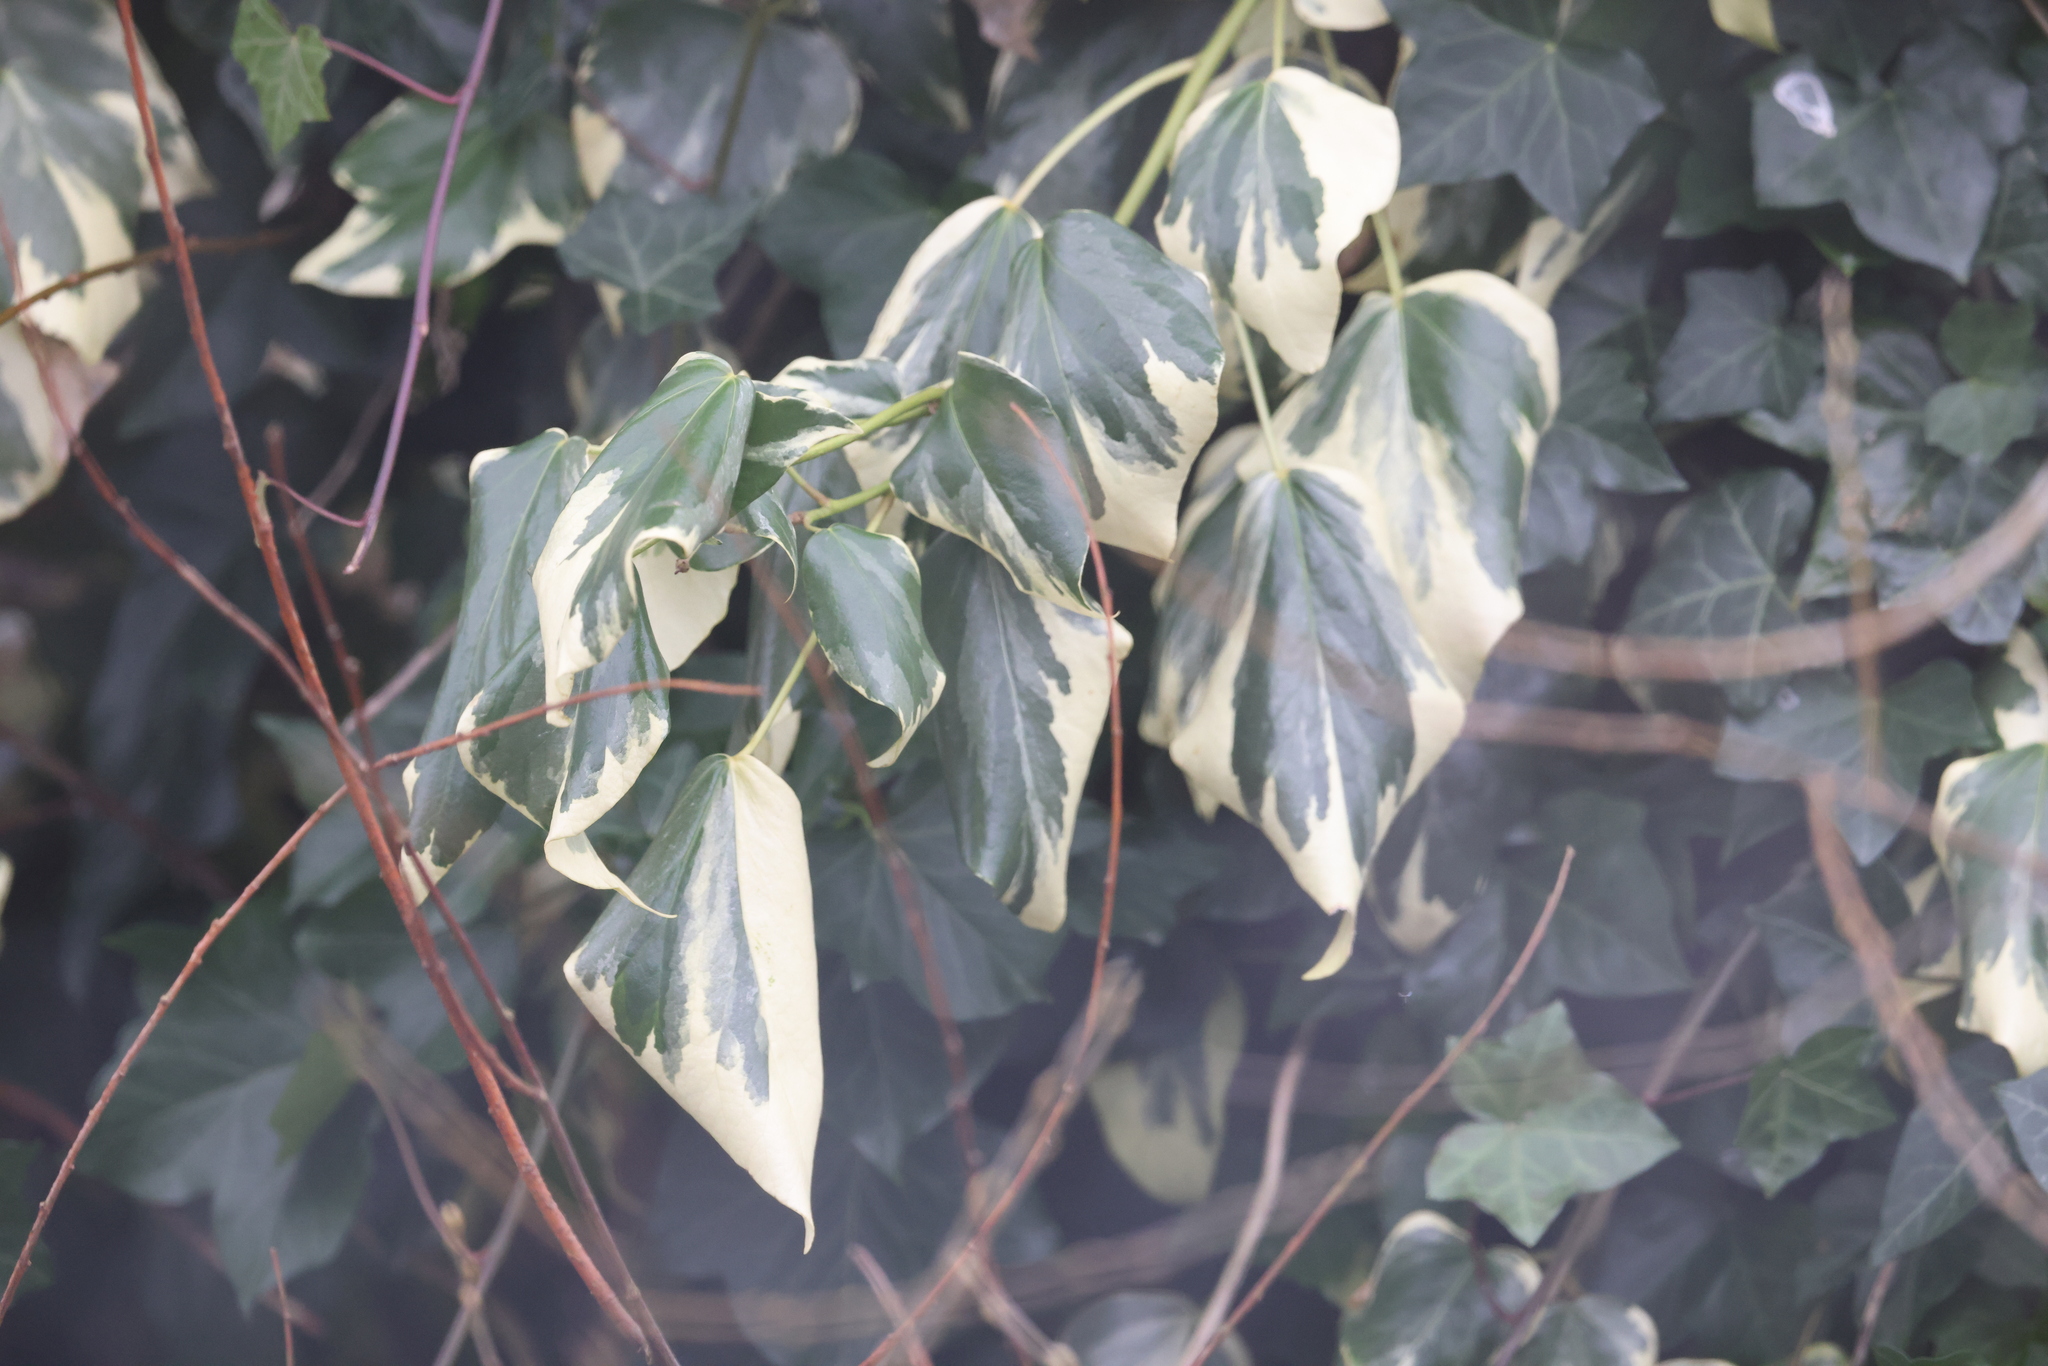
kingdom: Plantae
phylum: Tracheophyta
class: Magnoliopsida
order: Apiales
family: Araliaceae
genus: Hedera
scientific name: Hedera colchica
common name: Persian ivy
